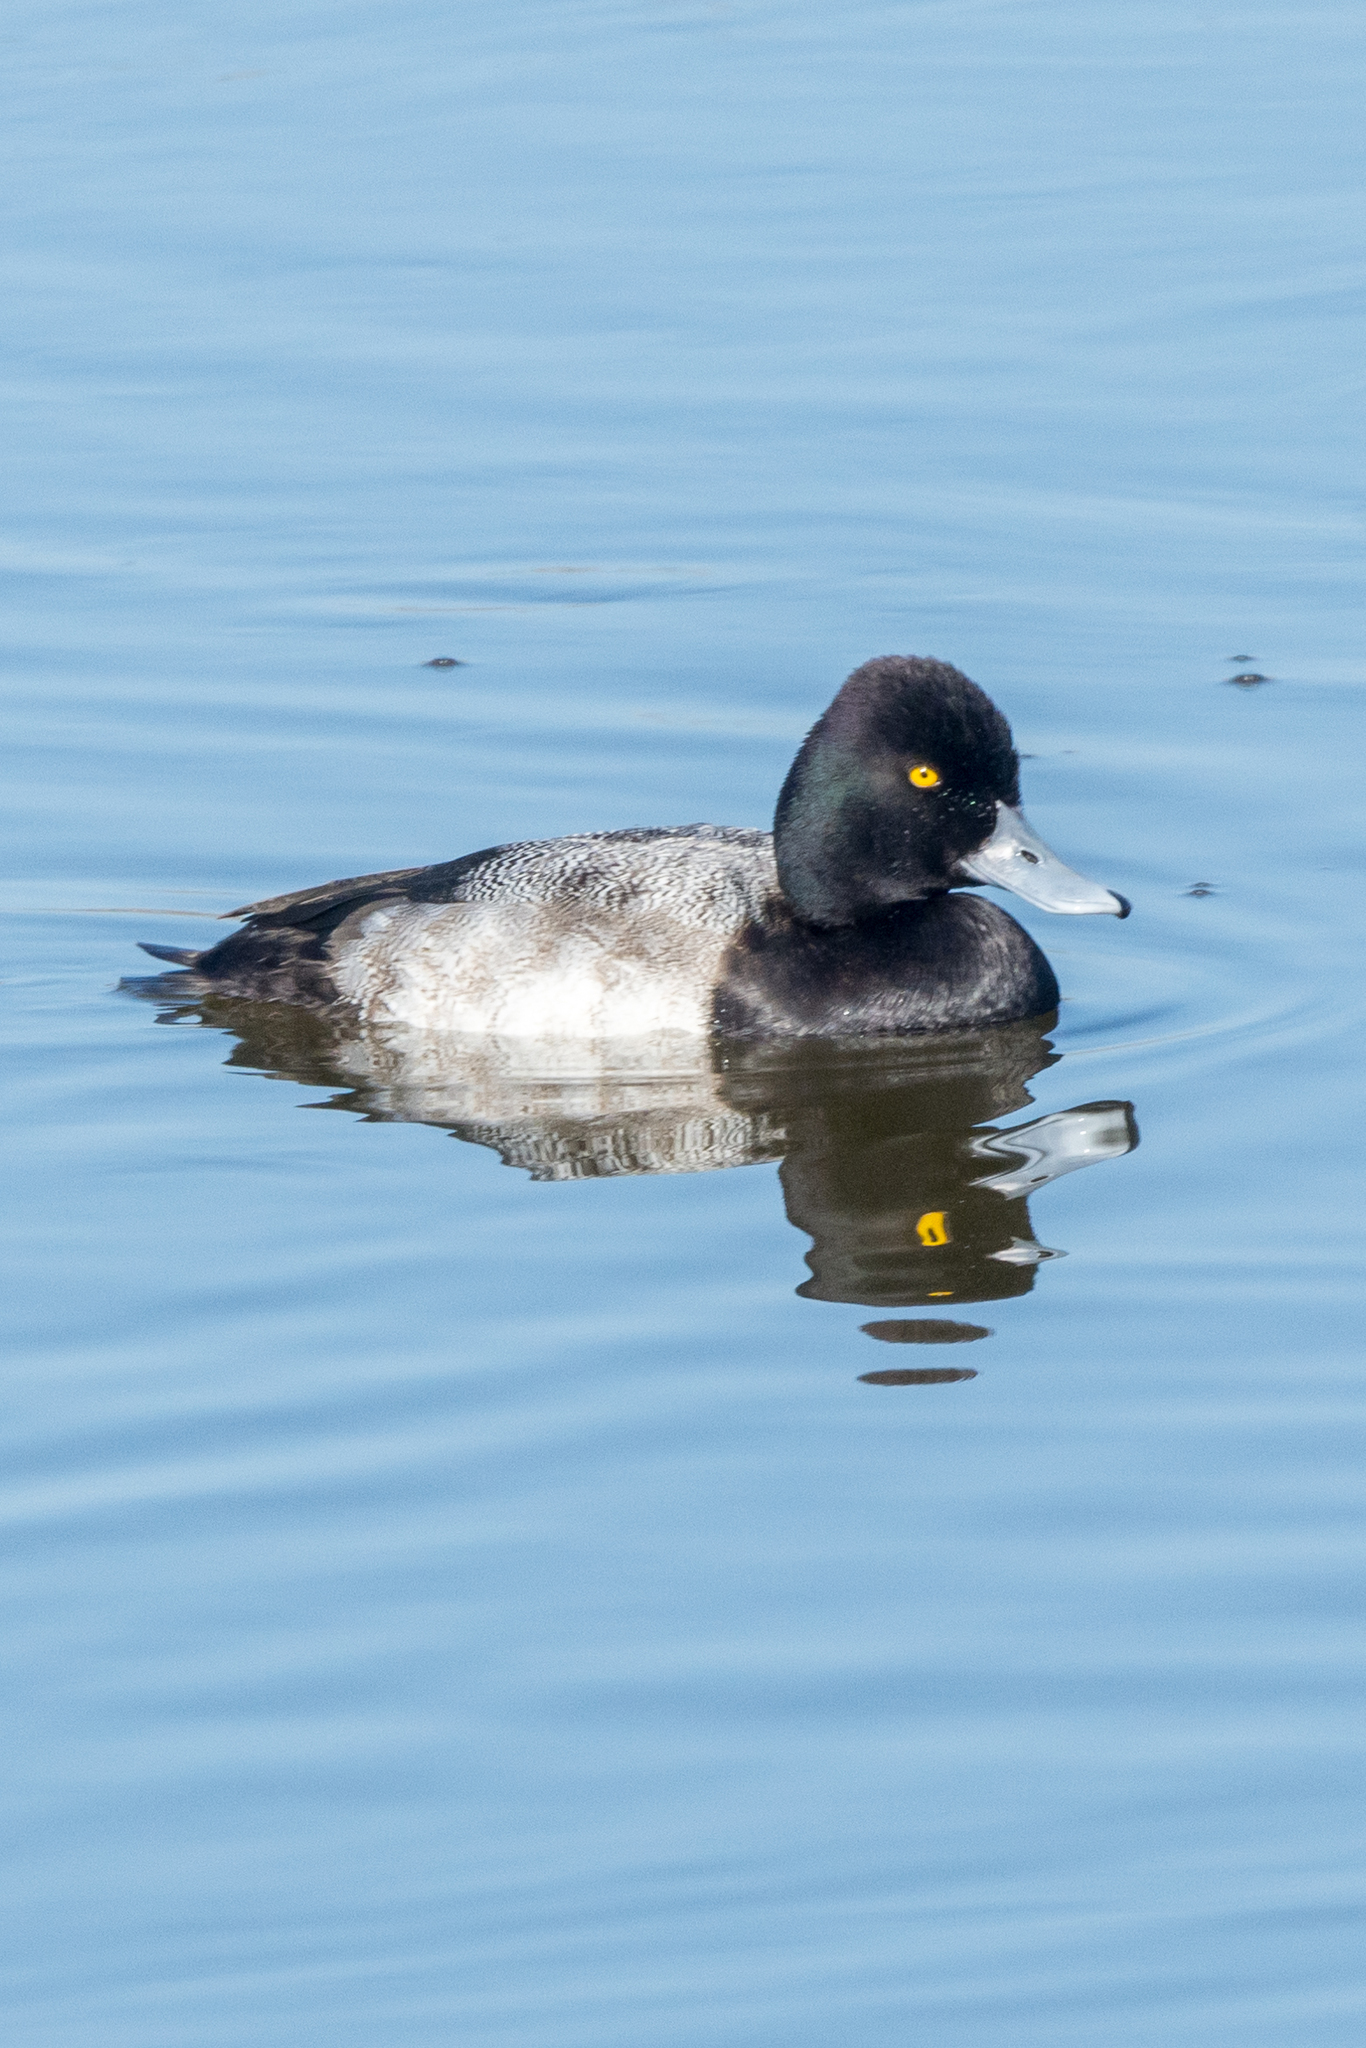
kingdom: Animalia
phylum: Chordata
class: Aves
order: Anseriformes
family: Anatidae
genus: Aythya
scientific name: Aythya affinis
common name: Lesser scaup
